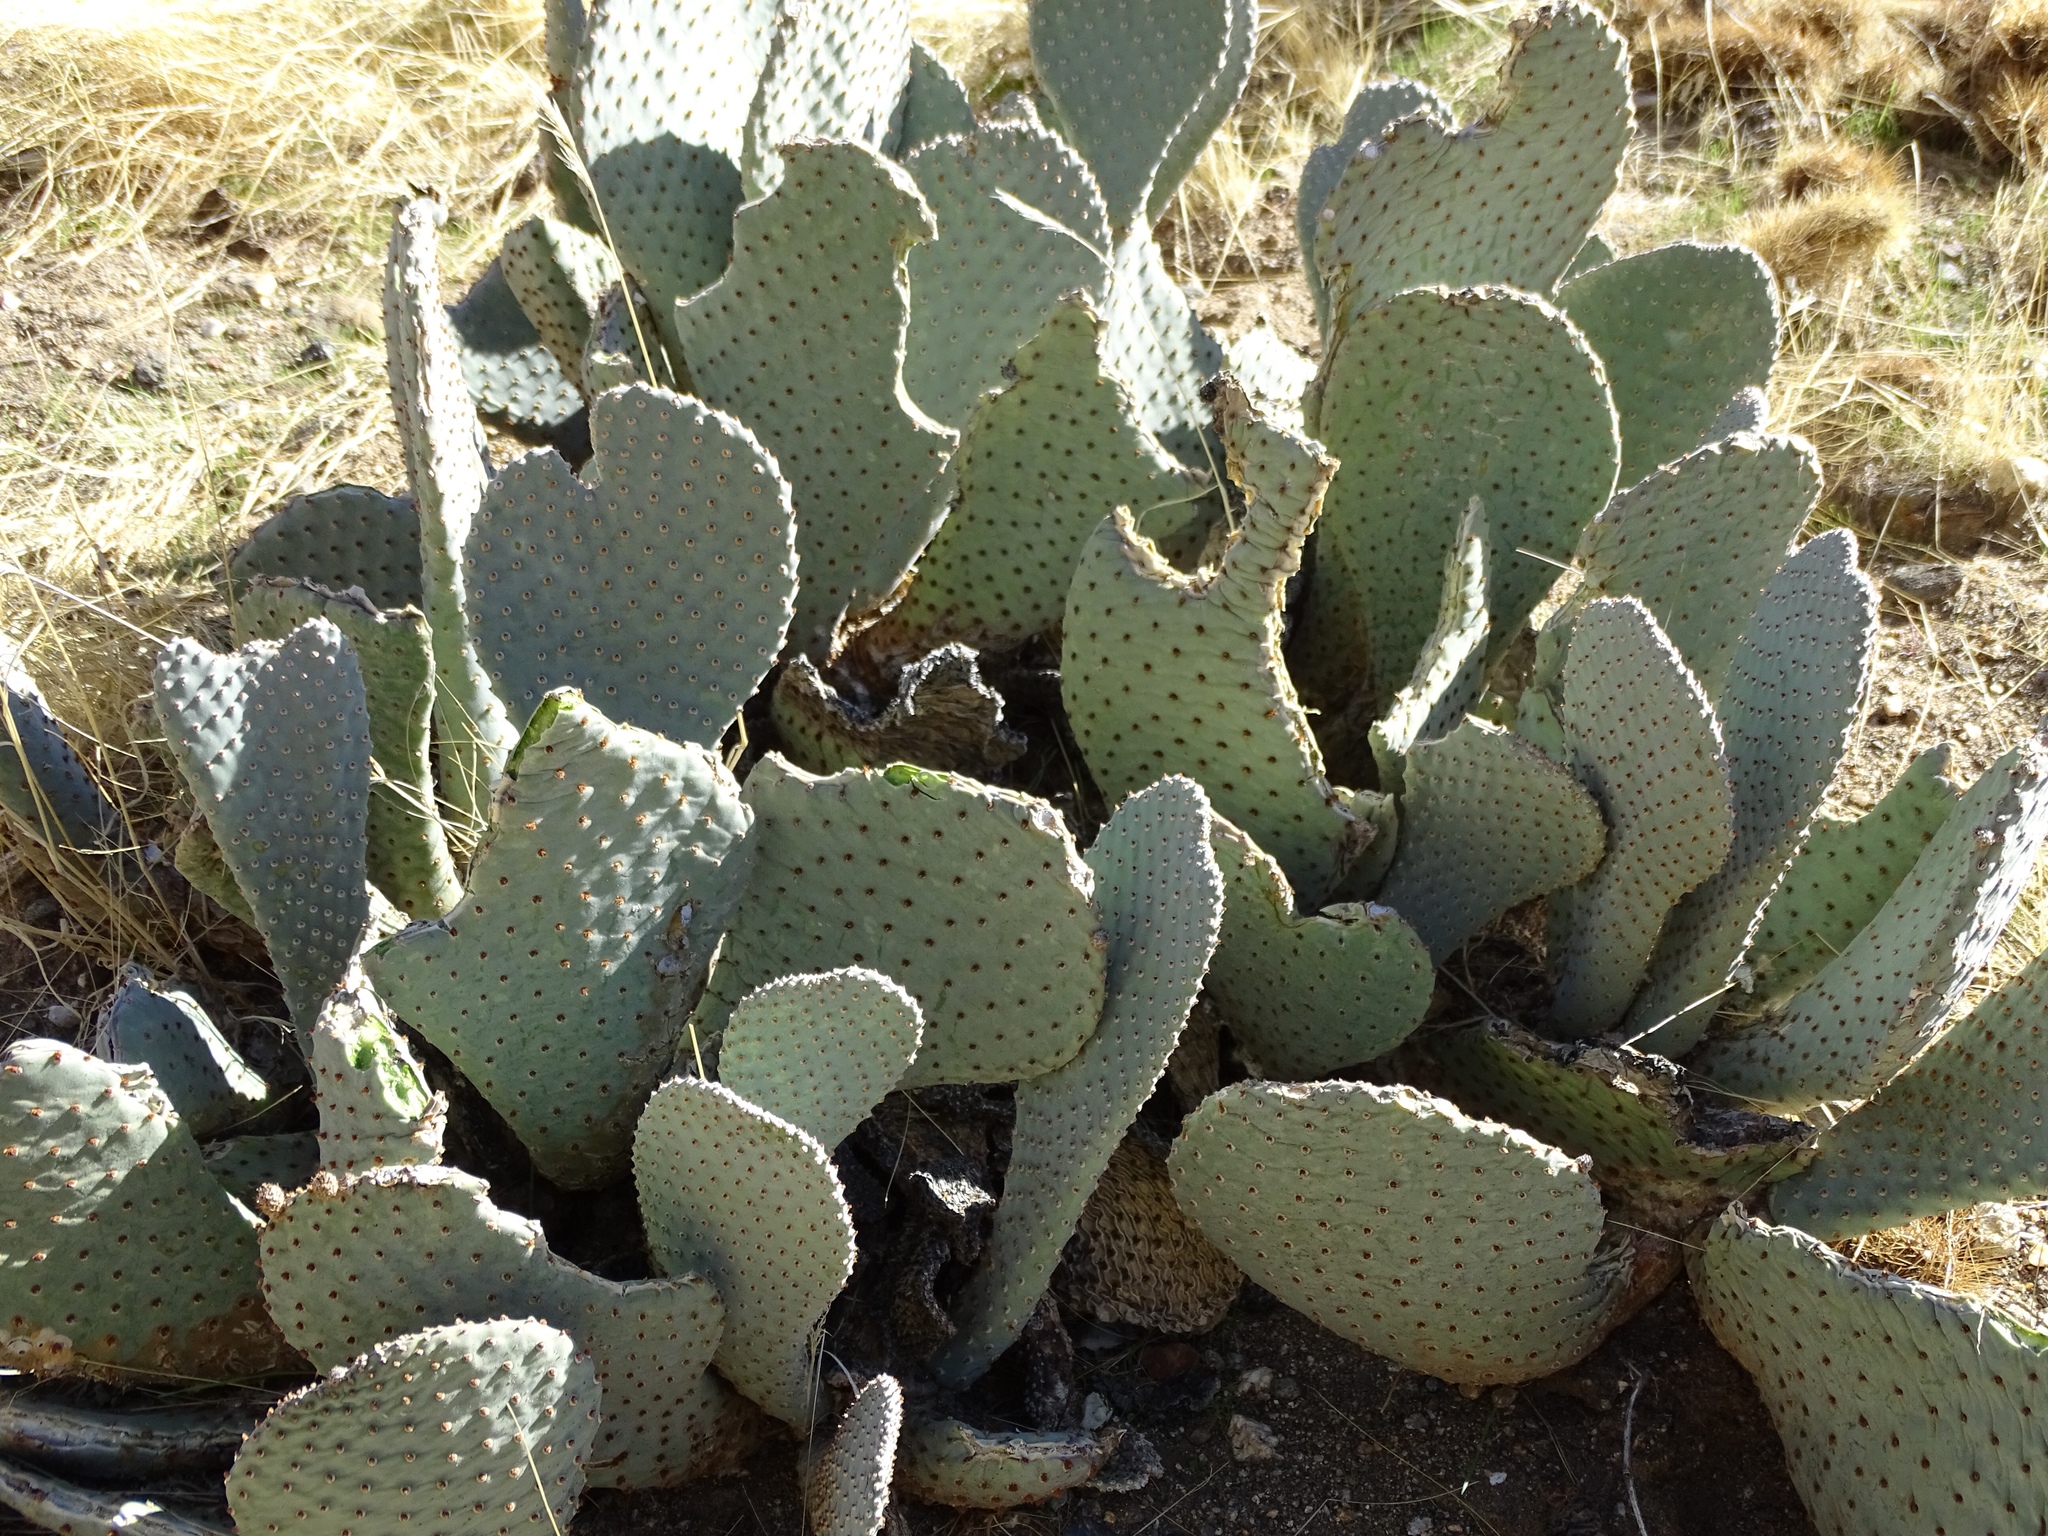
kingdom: Plantae
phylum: Tracheophyta
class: Magnoliopsida
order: Caryophyllales
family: Cactaceae
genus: Opuntia
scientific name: Opuntia basilaris
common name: Beavertail prickly-pear
